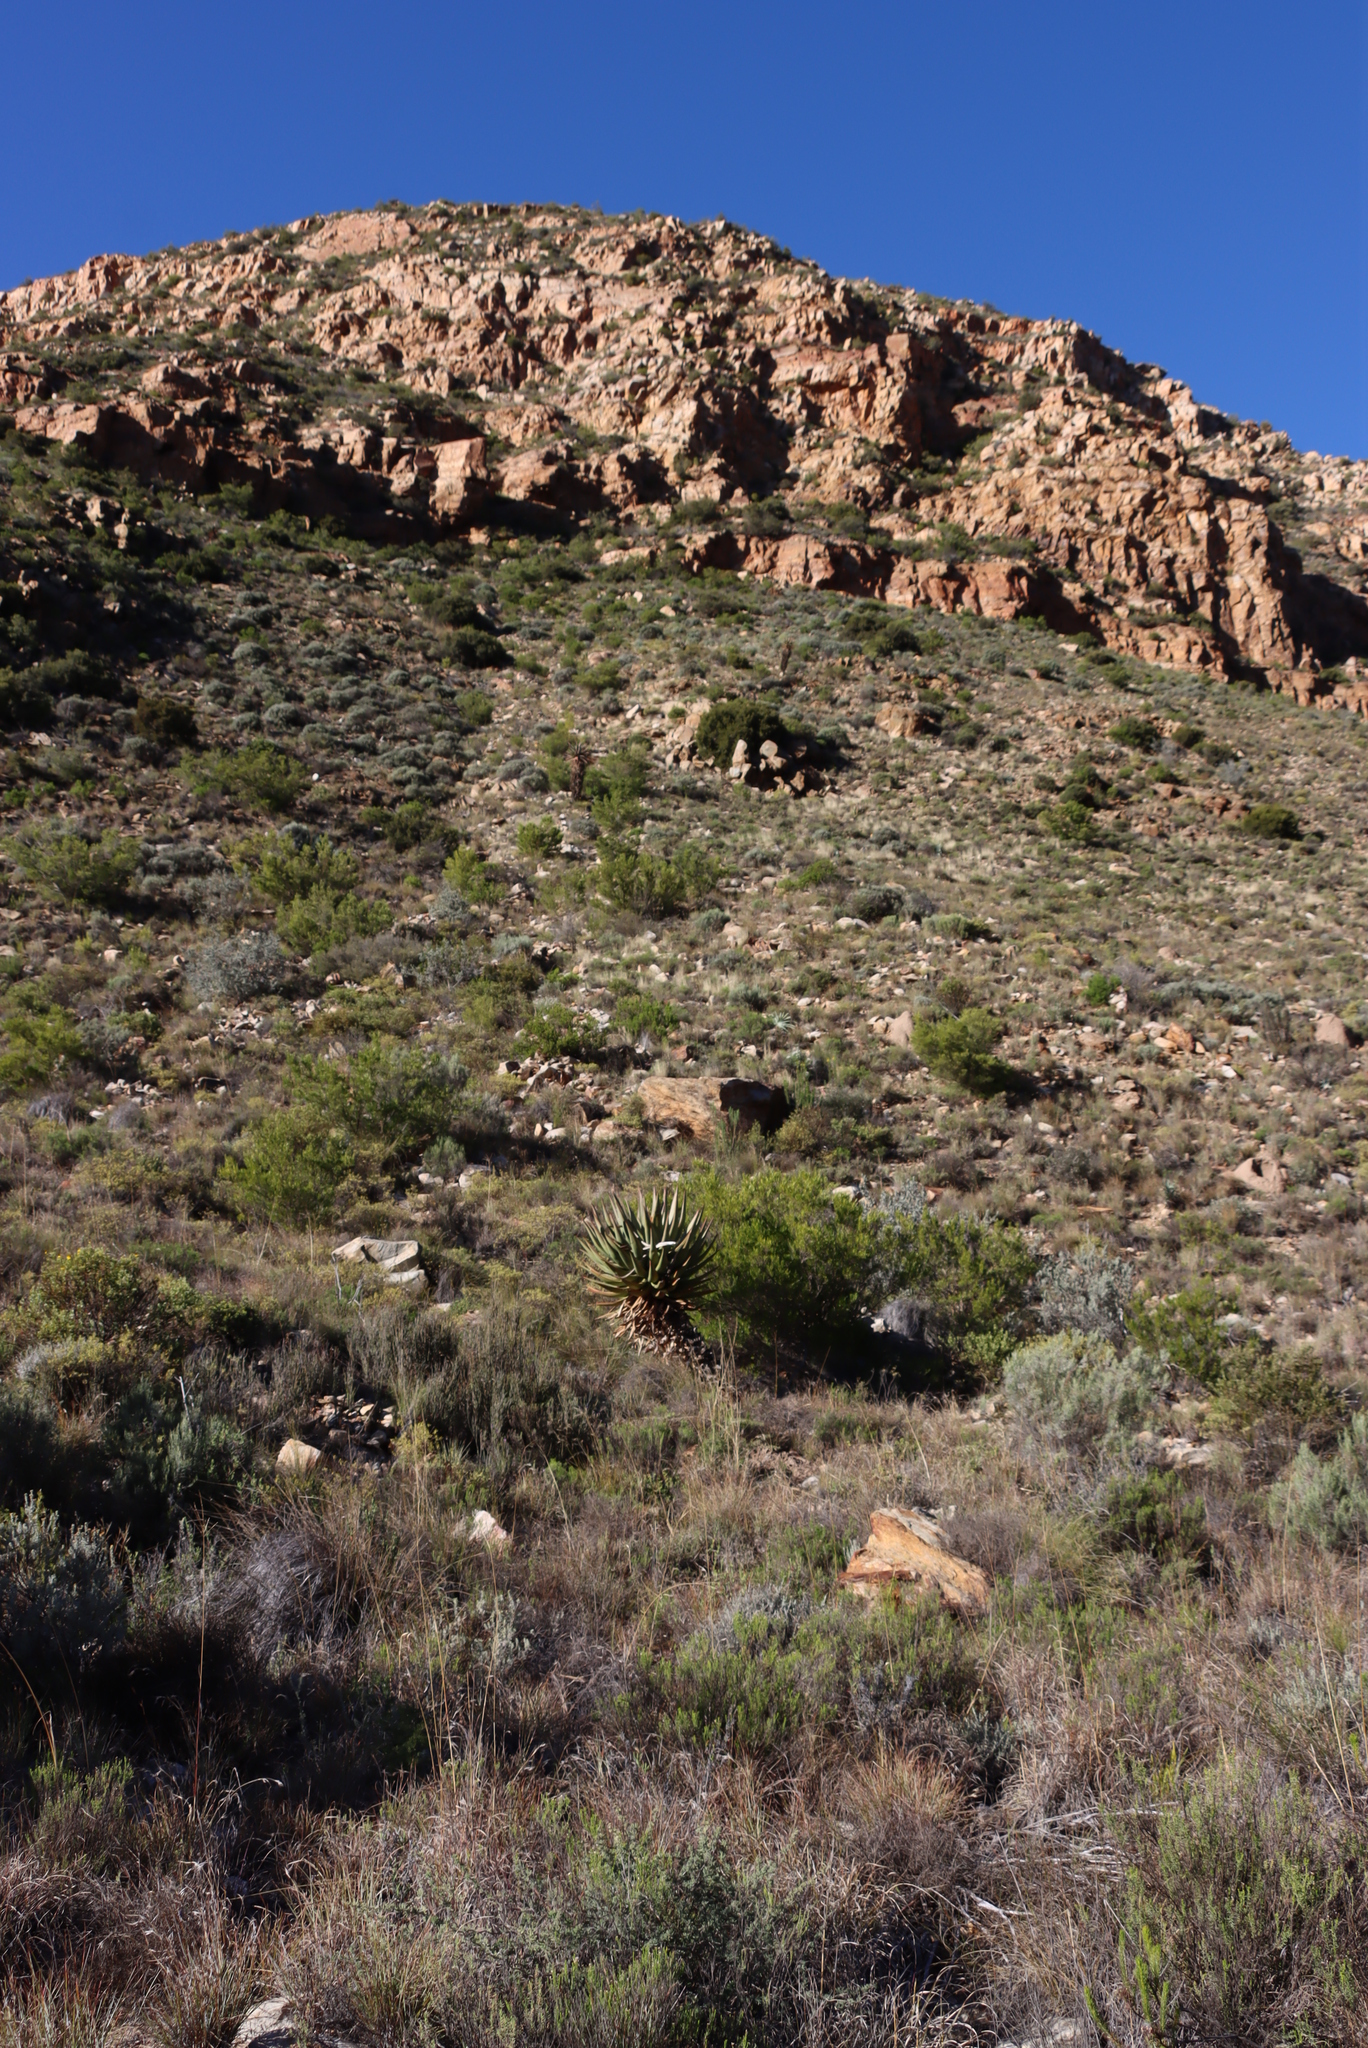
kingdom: Plantae
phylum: Tracheophyta
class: Liliopsida
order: Asparagales
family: Asphodelaceae
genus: Aloe
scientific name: Aloe ferox
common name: Bitter aloe
